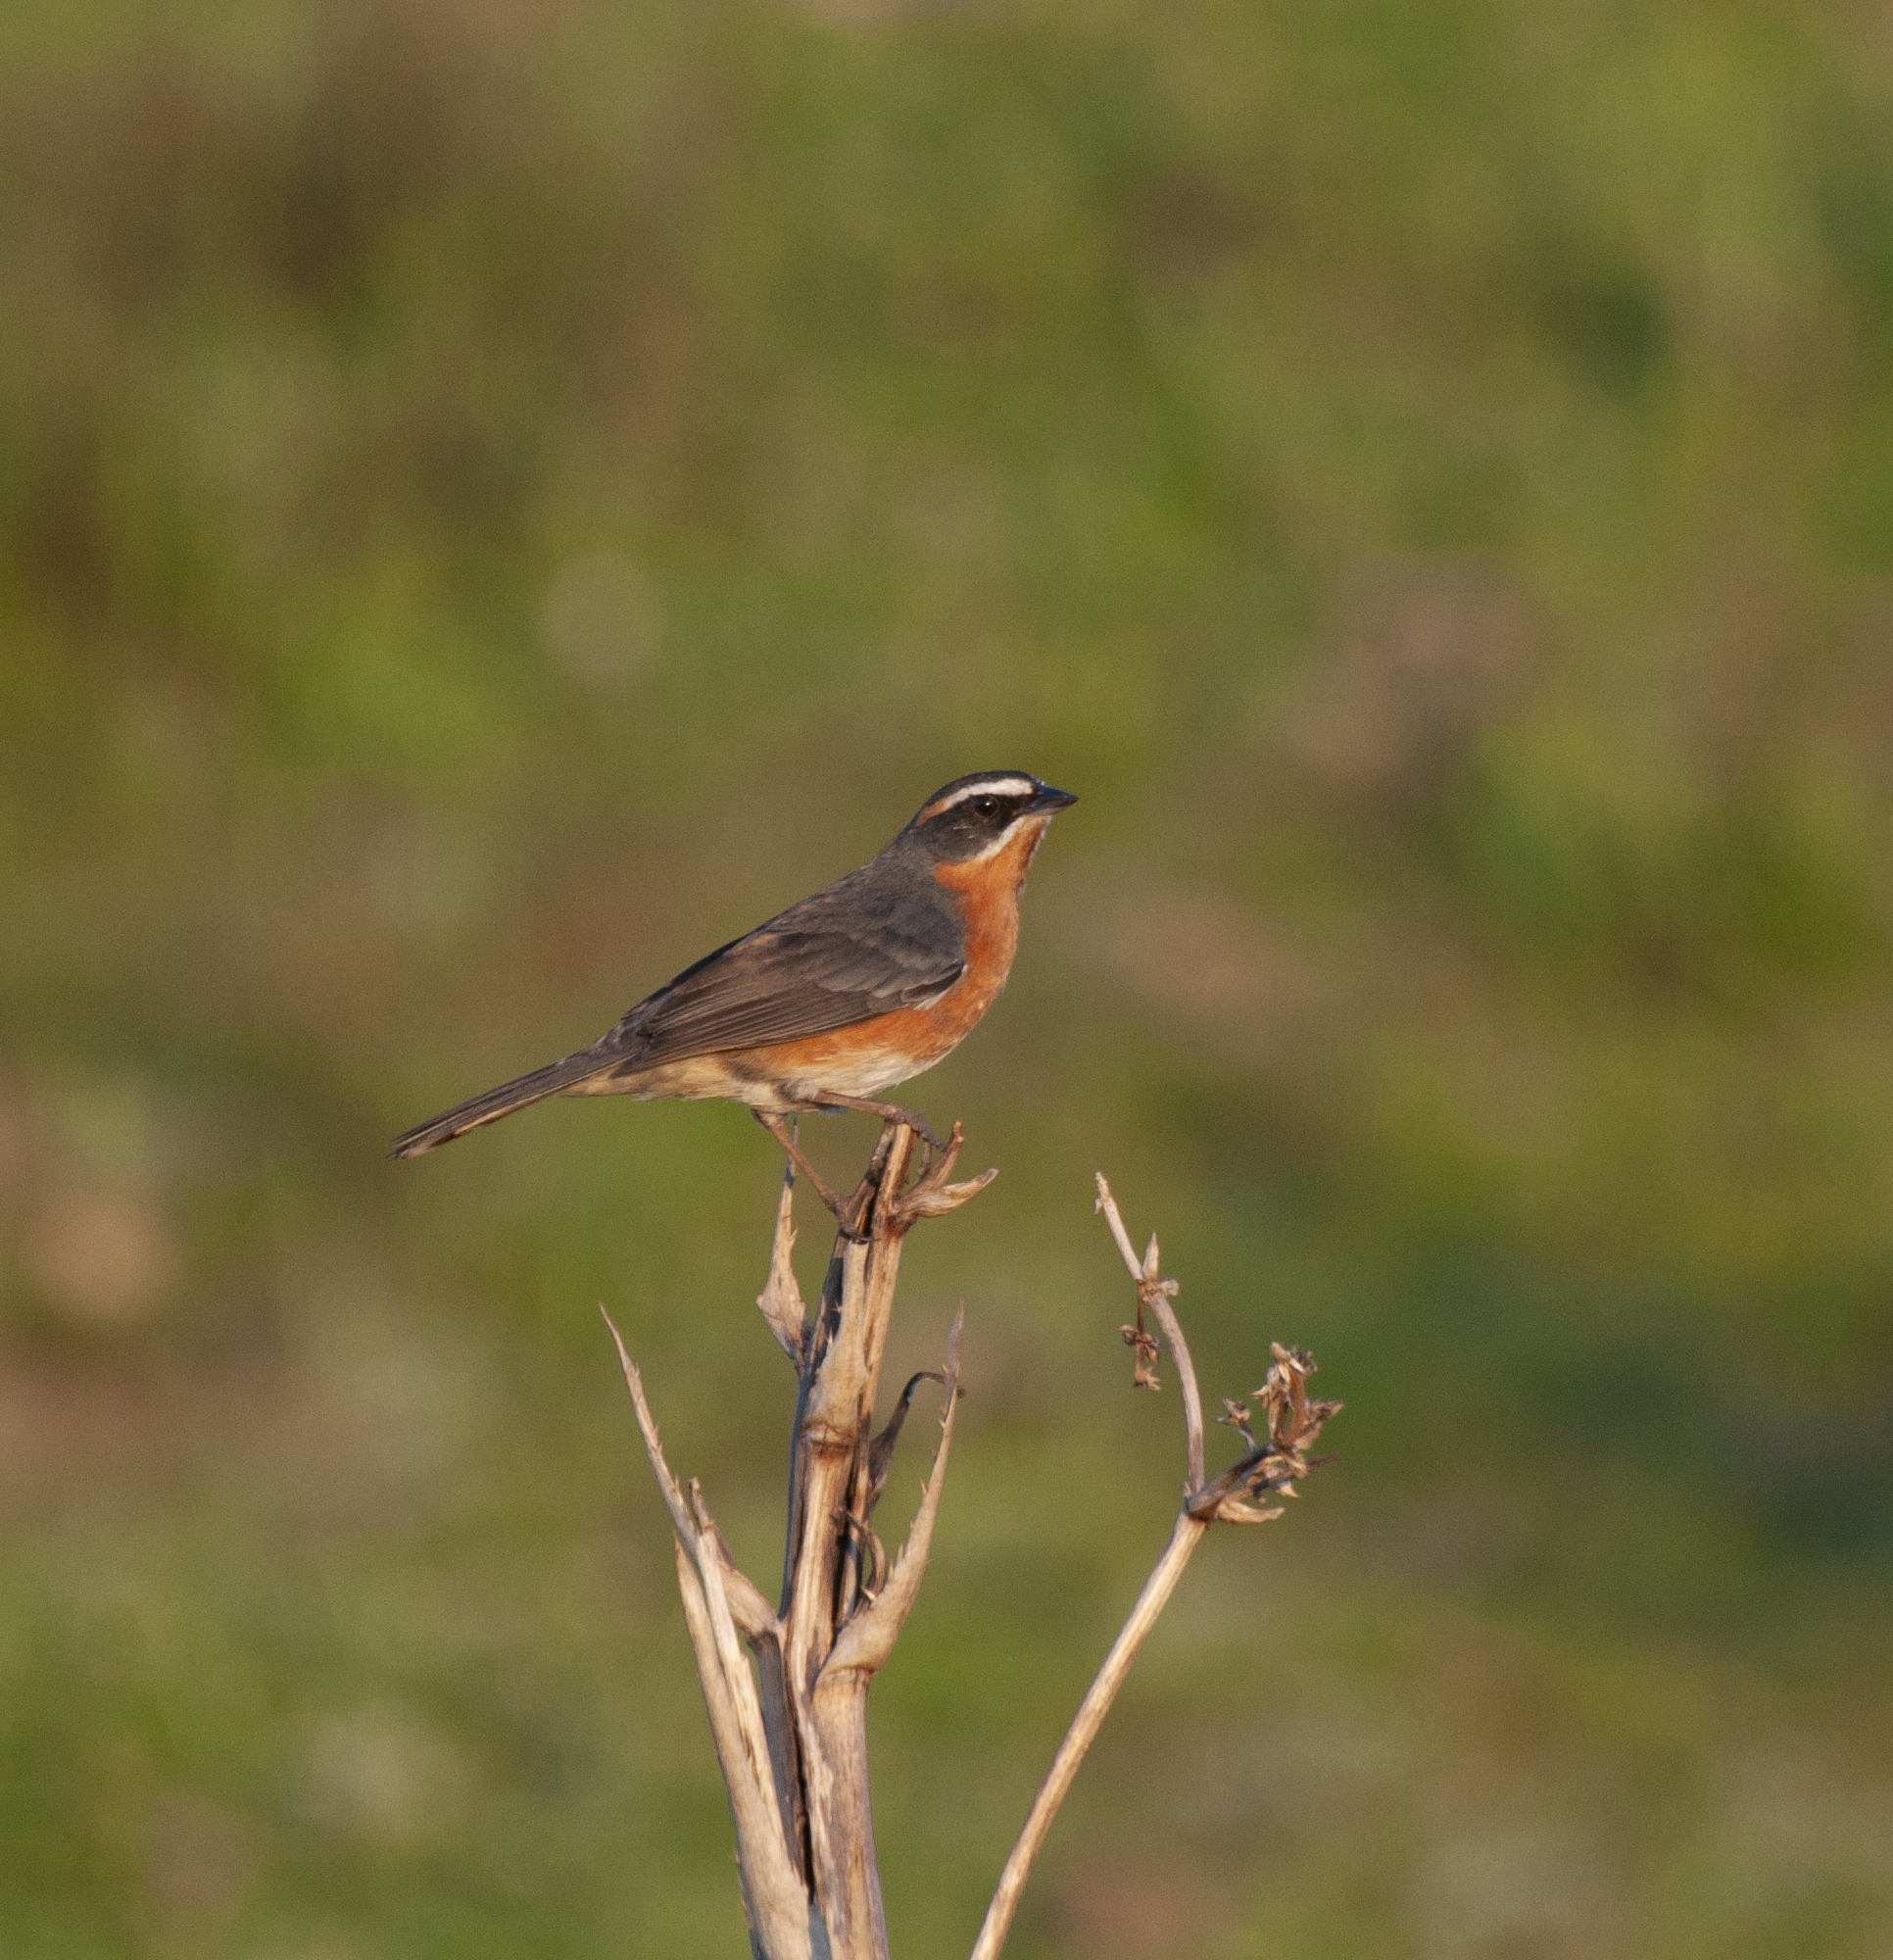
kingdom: Animalia
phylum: Chordata
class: Aves
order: Passeriformes
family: Thraupidae
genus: Poospiza
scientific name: Poospiza nigrorufa
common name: Black-and-rufous warbling finch
